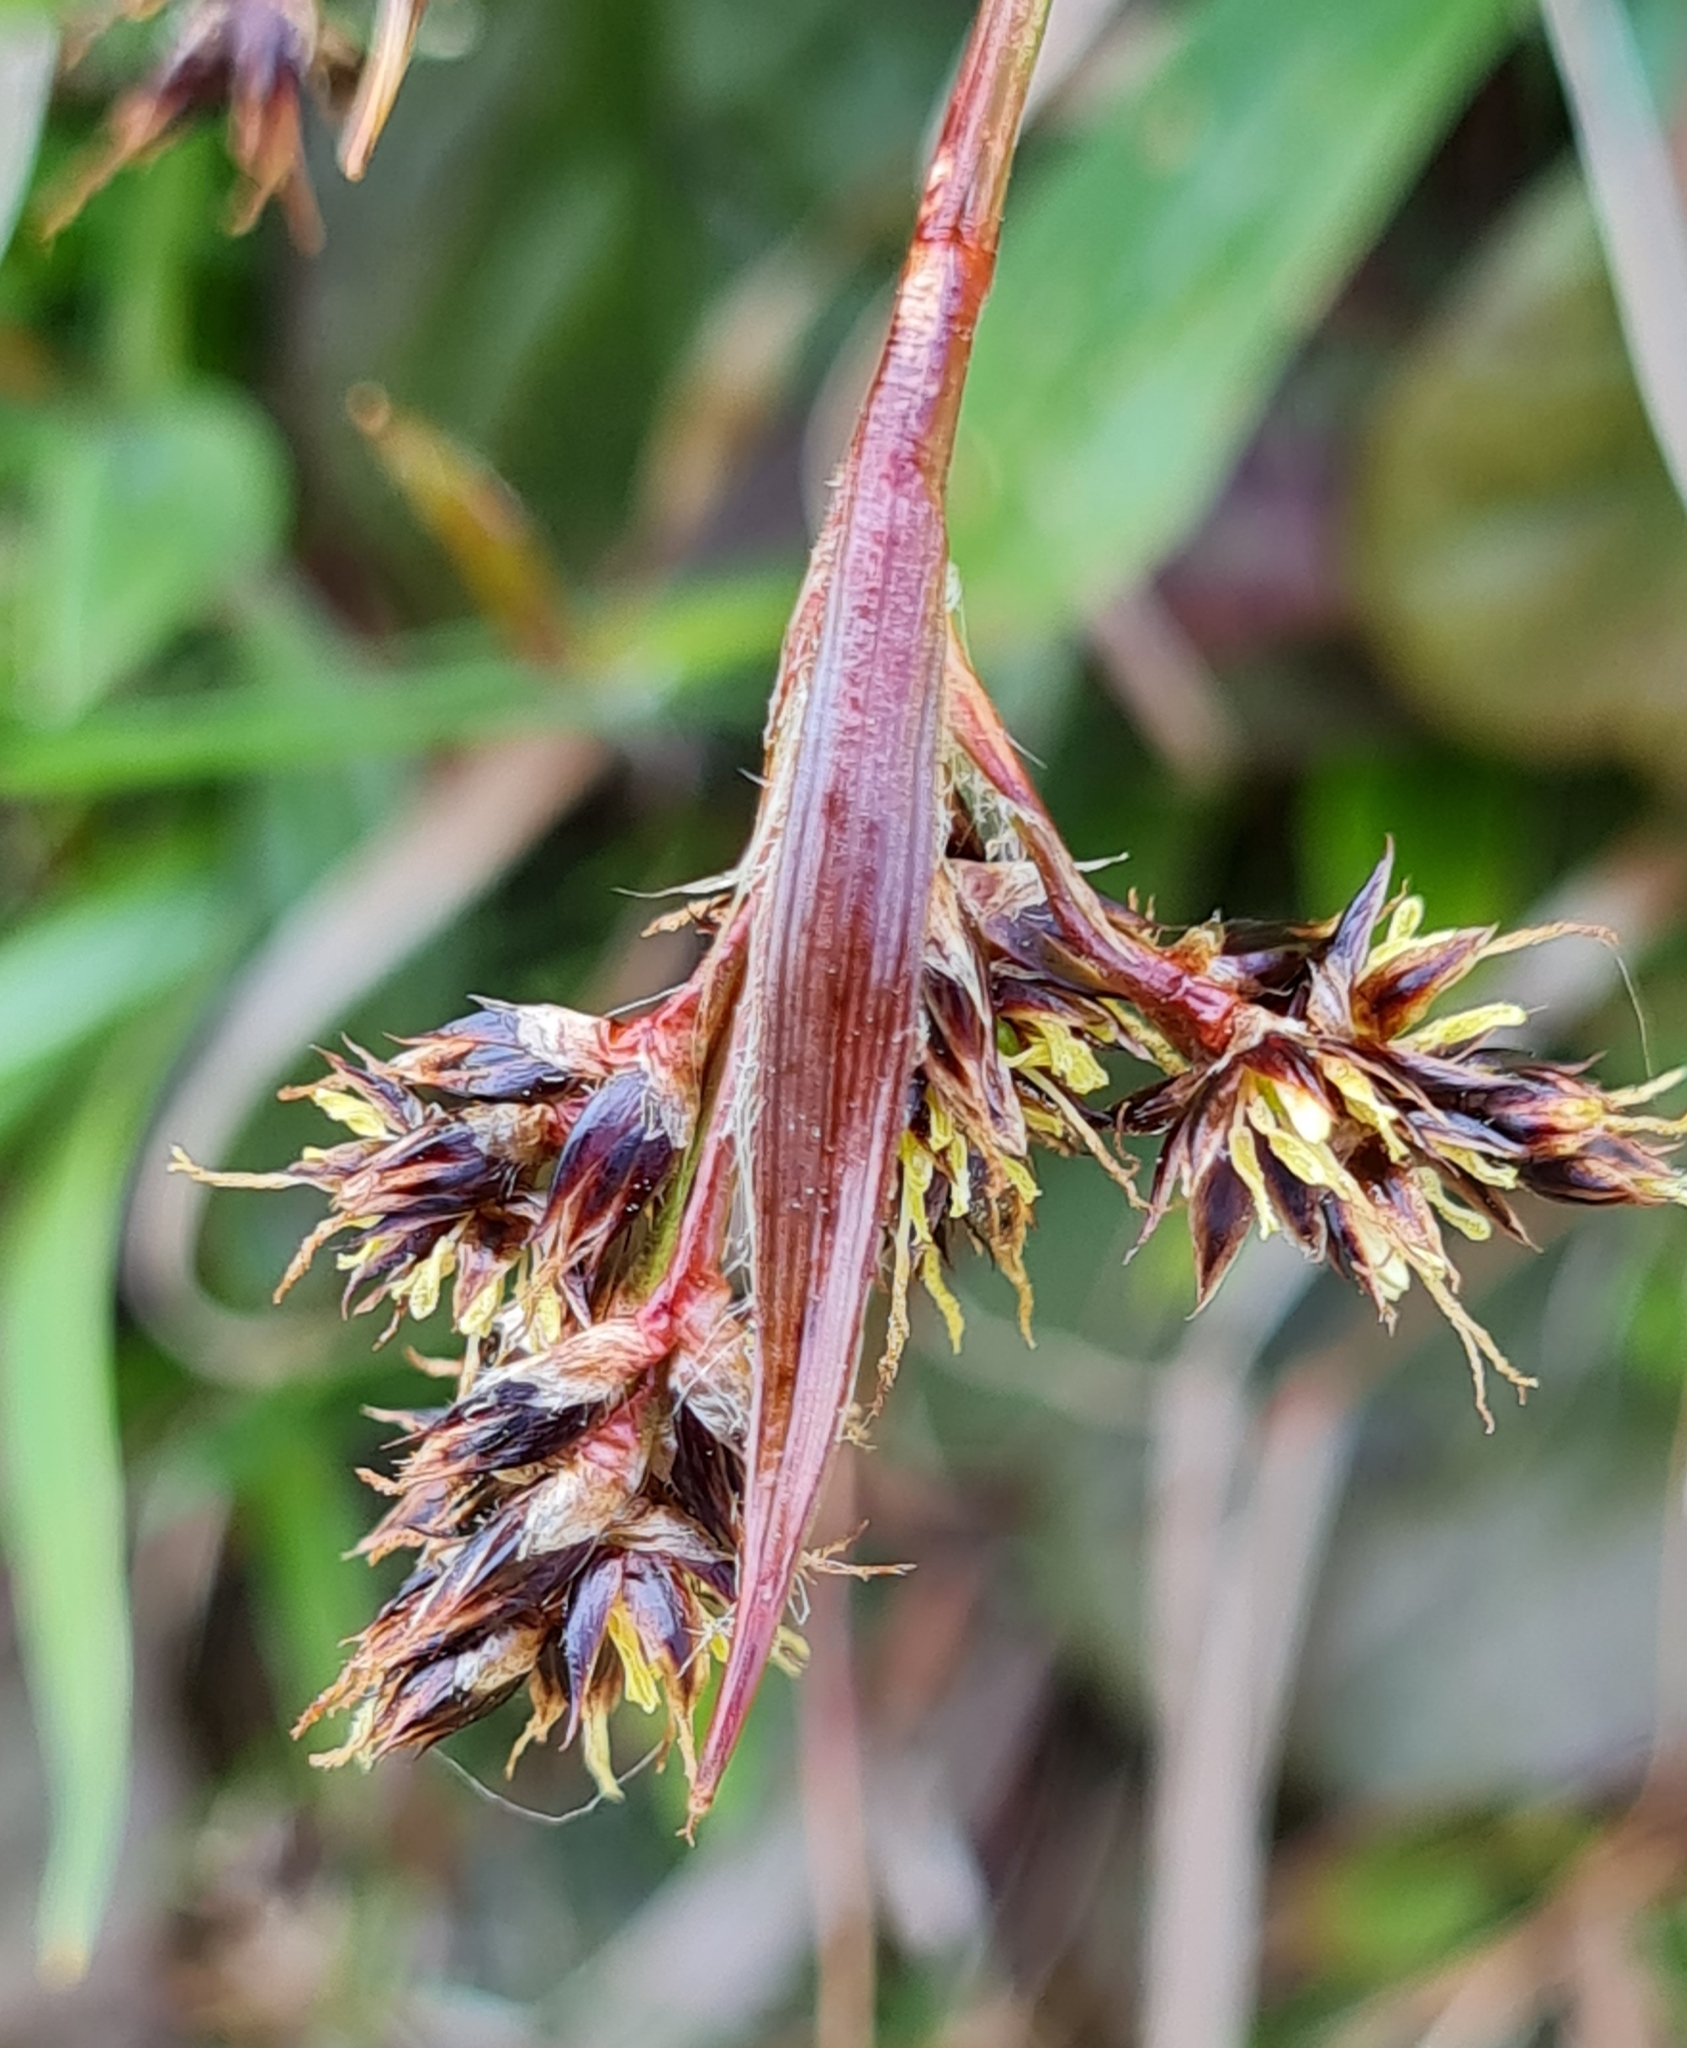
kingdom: Plantae
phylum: Tracheophyta
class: Liliopsida
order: Poales
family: Juncaceae
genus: Luzula
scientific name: Luzula campestris
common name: Field wood-rush
